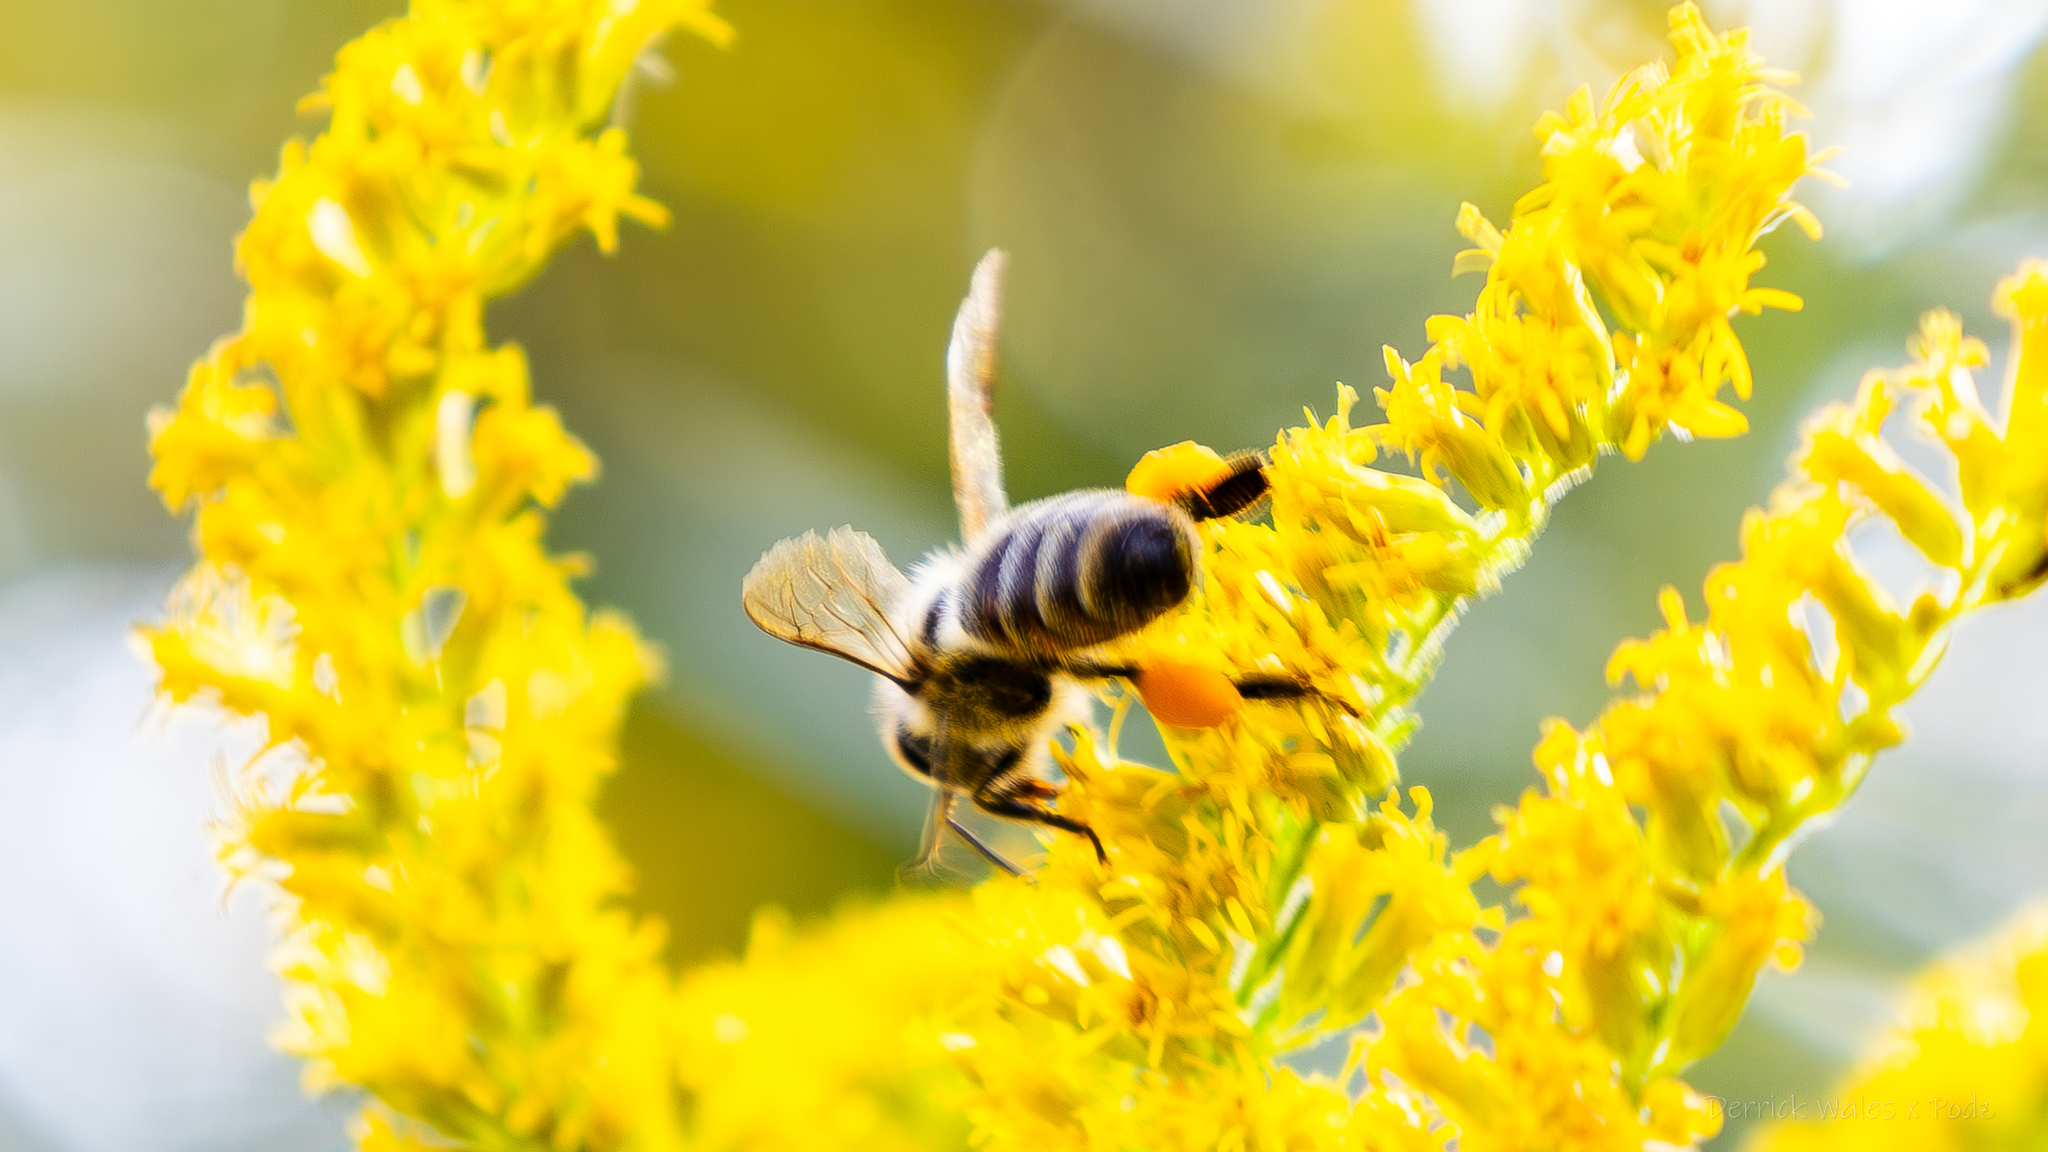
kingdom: Animalia
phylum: Arthropoda
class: Insecta
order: Hymenoptera
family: Apidae
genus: Apis
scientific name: Apis mellifera
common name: Honey bee
